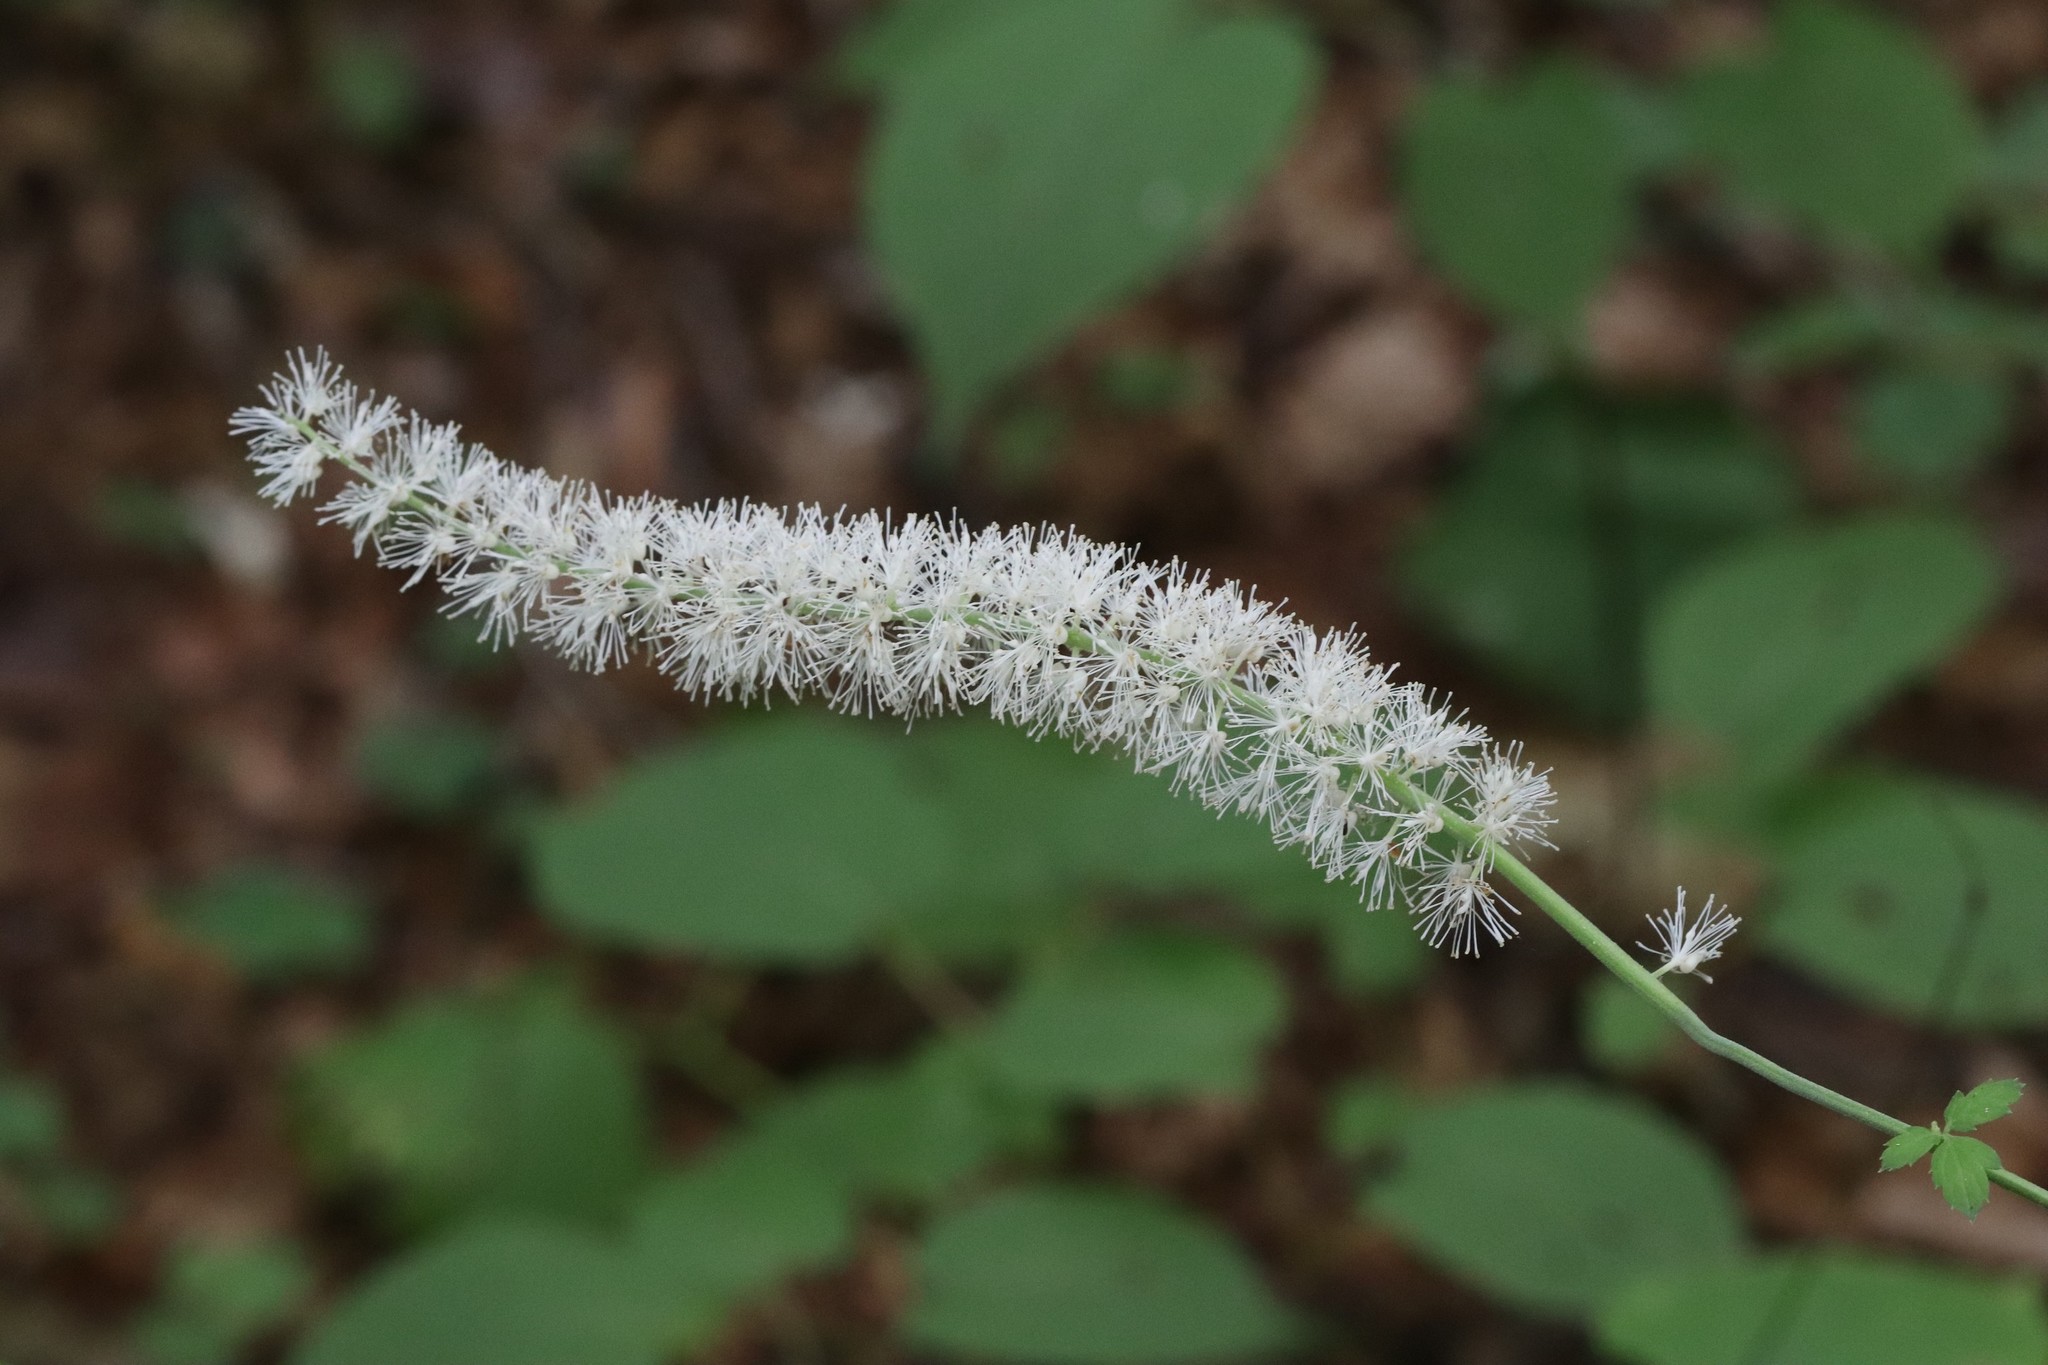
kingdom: Plantae
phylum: Tracheophyta
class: Magnoliopsida
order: Ranunculales
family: Ranunculaceae
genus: Actaea
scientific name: Actaea simplex
